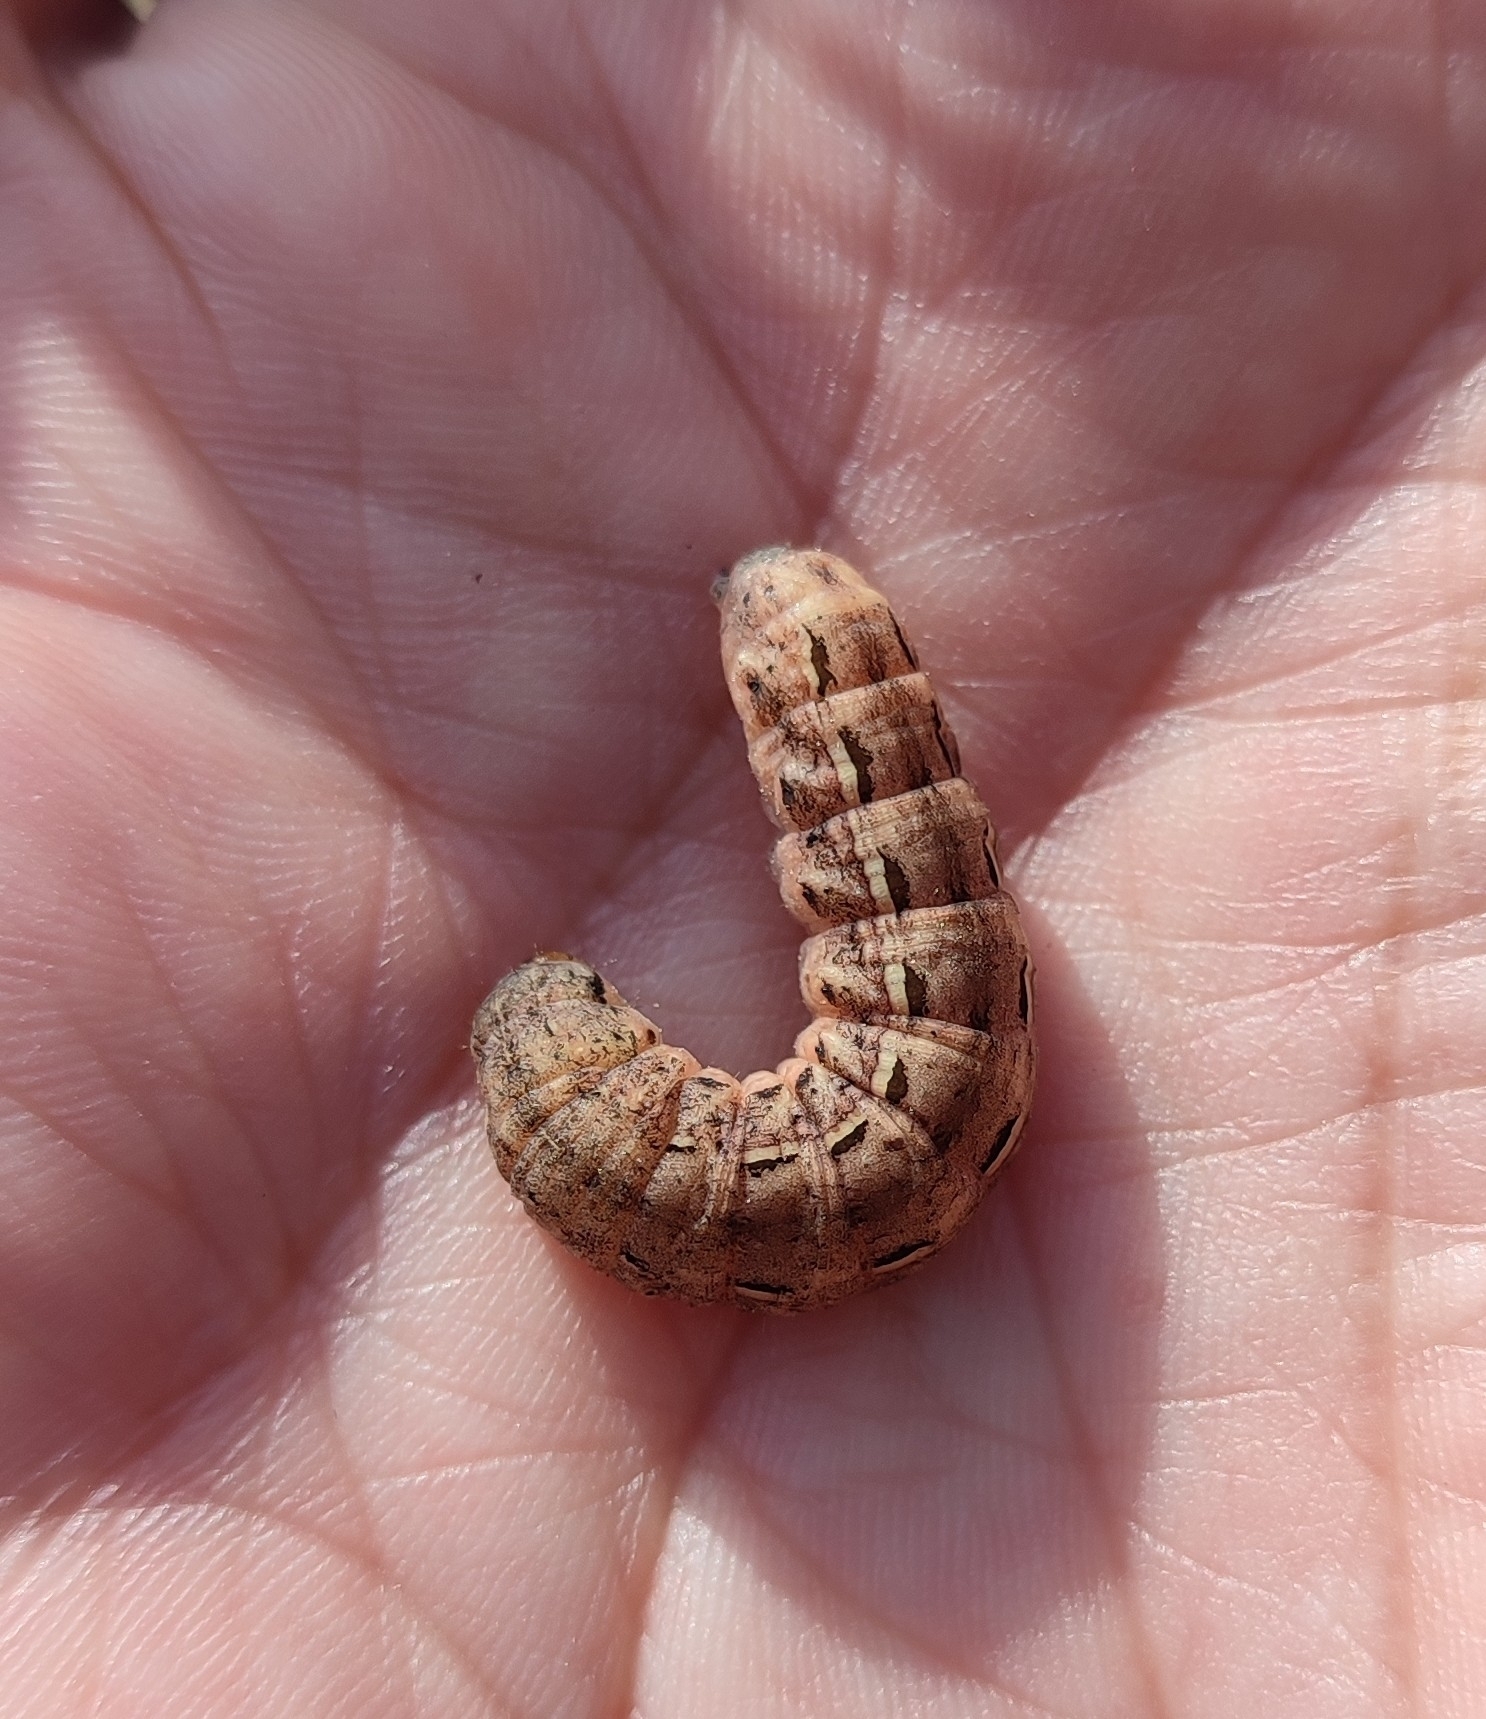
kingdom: Animalia
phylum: Arthropoda
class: Insecta
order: Lepidoptera
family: Noctuidae
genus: Noctua
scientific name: Noctua pronuba
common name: Large yellow underwing
